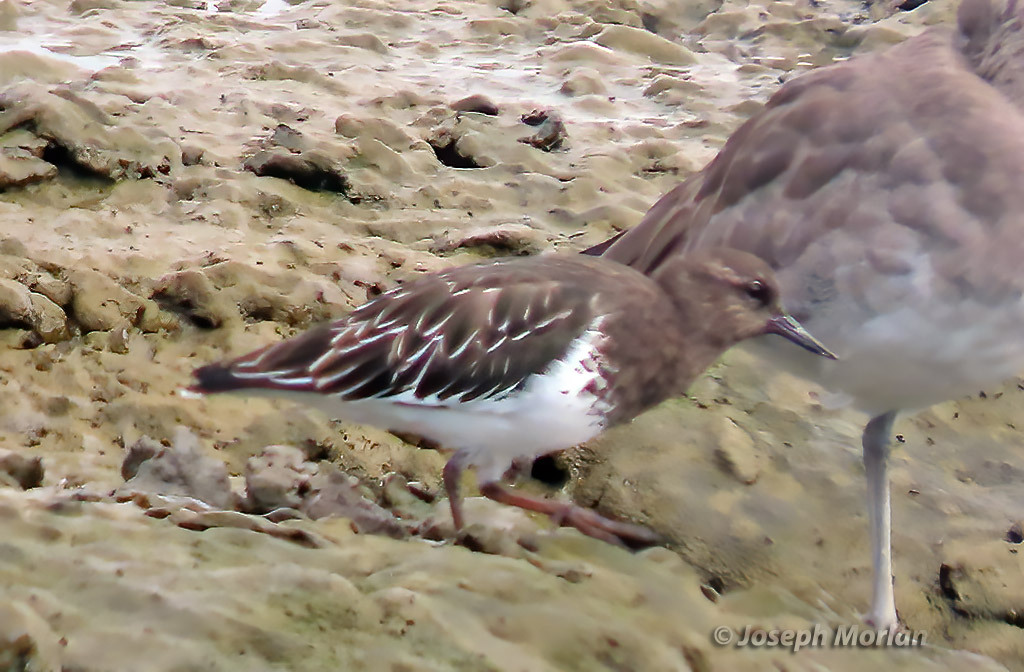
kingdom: Animalia
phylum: Chordata
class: Aves
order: Charadriiformes
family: Scolopacidae
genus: Arenaria
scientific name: Arenaria melanocephala
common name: Black turnstone
